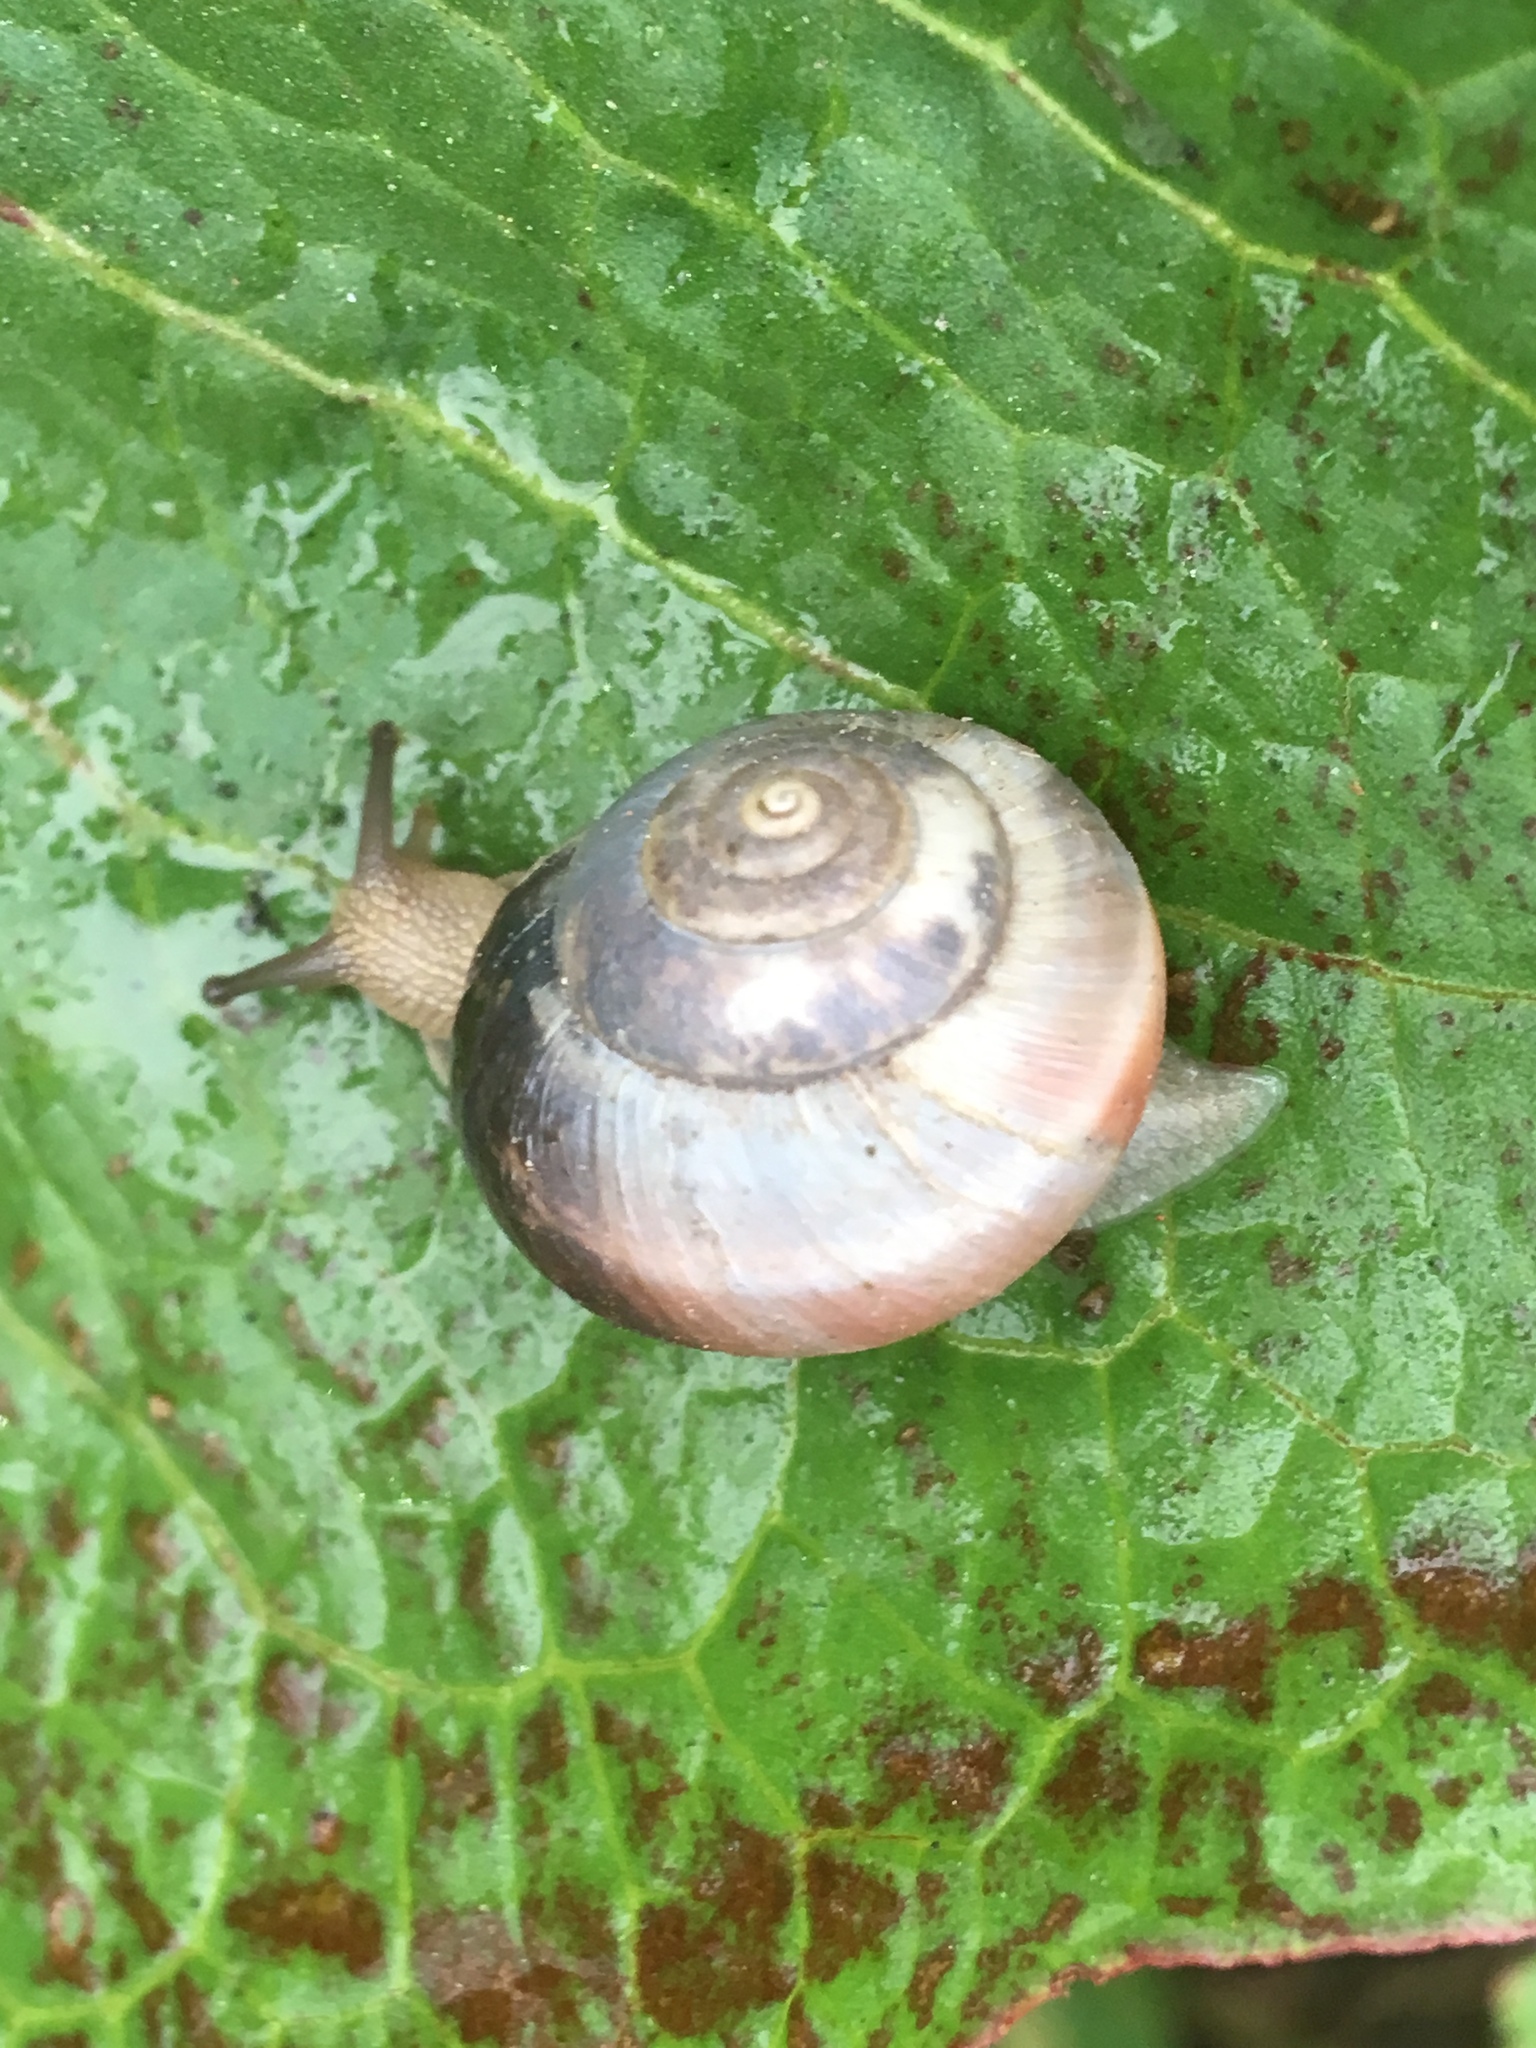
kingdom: Animalia
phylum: Mollusca
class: Gastropoda
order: Stylommatophora
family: Hygromiidae
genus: Monacha
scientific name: Monacha cantiana
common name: Kentish snail
